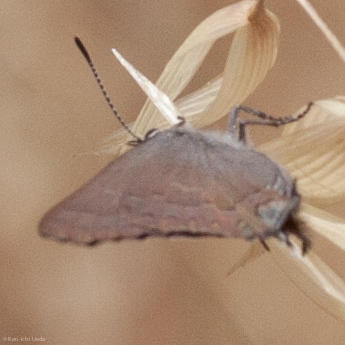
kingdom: Animalia
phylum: Arthropoda
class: Insecta
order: Lepidoptera
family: Lycaenidae
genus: Strymon
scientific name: Strymon saepium
